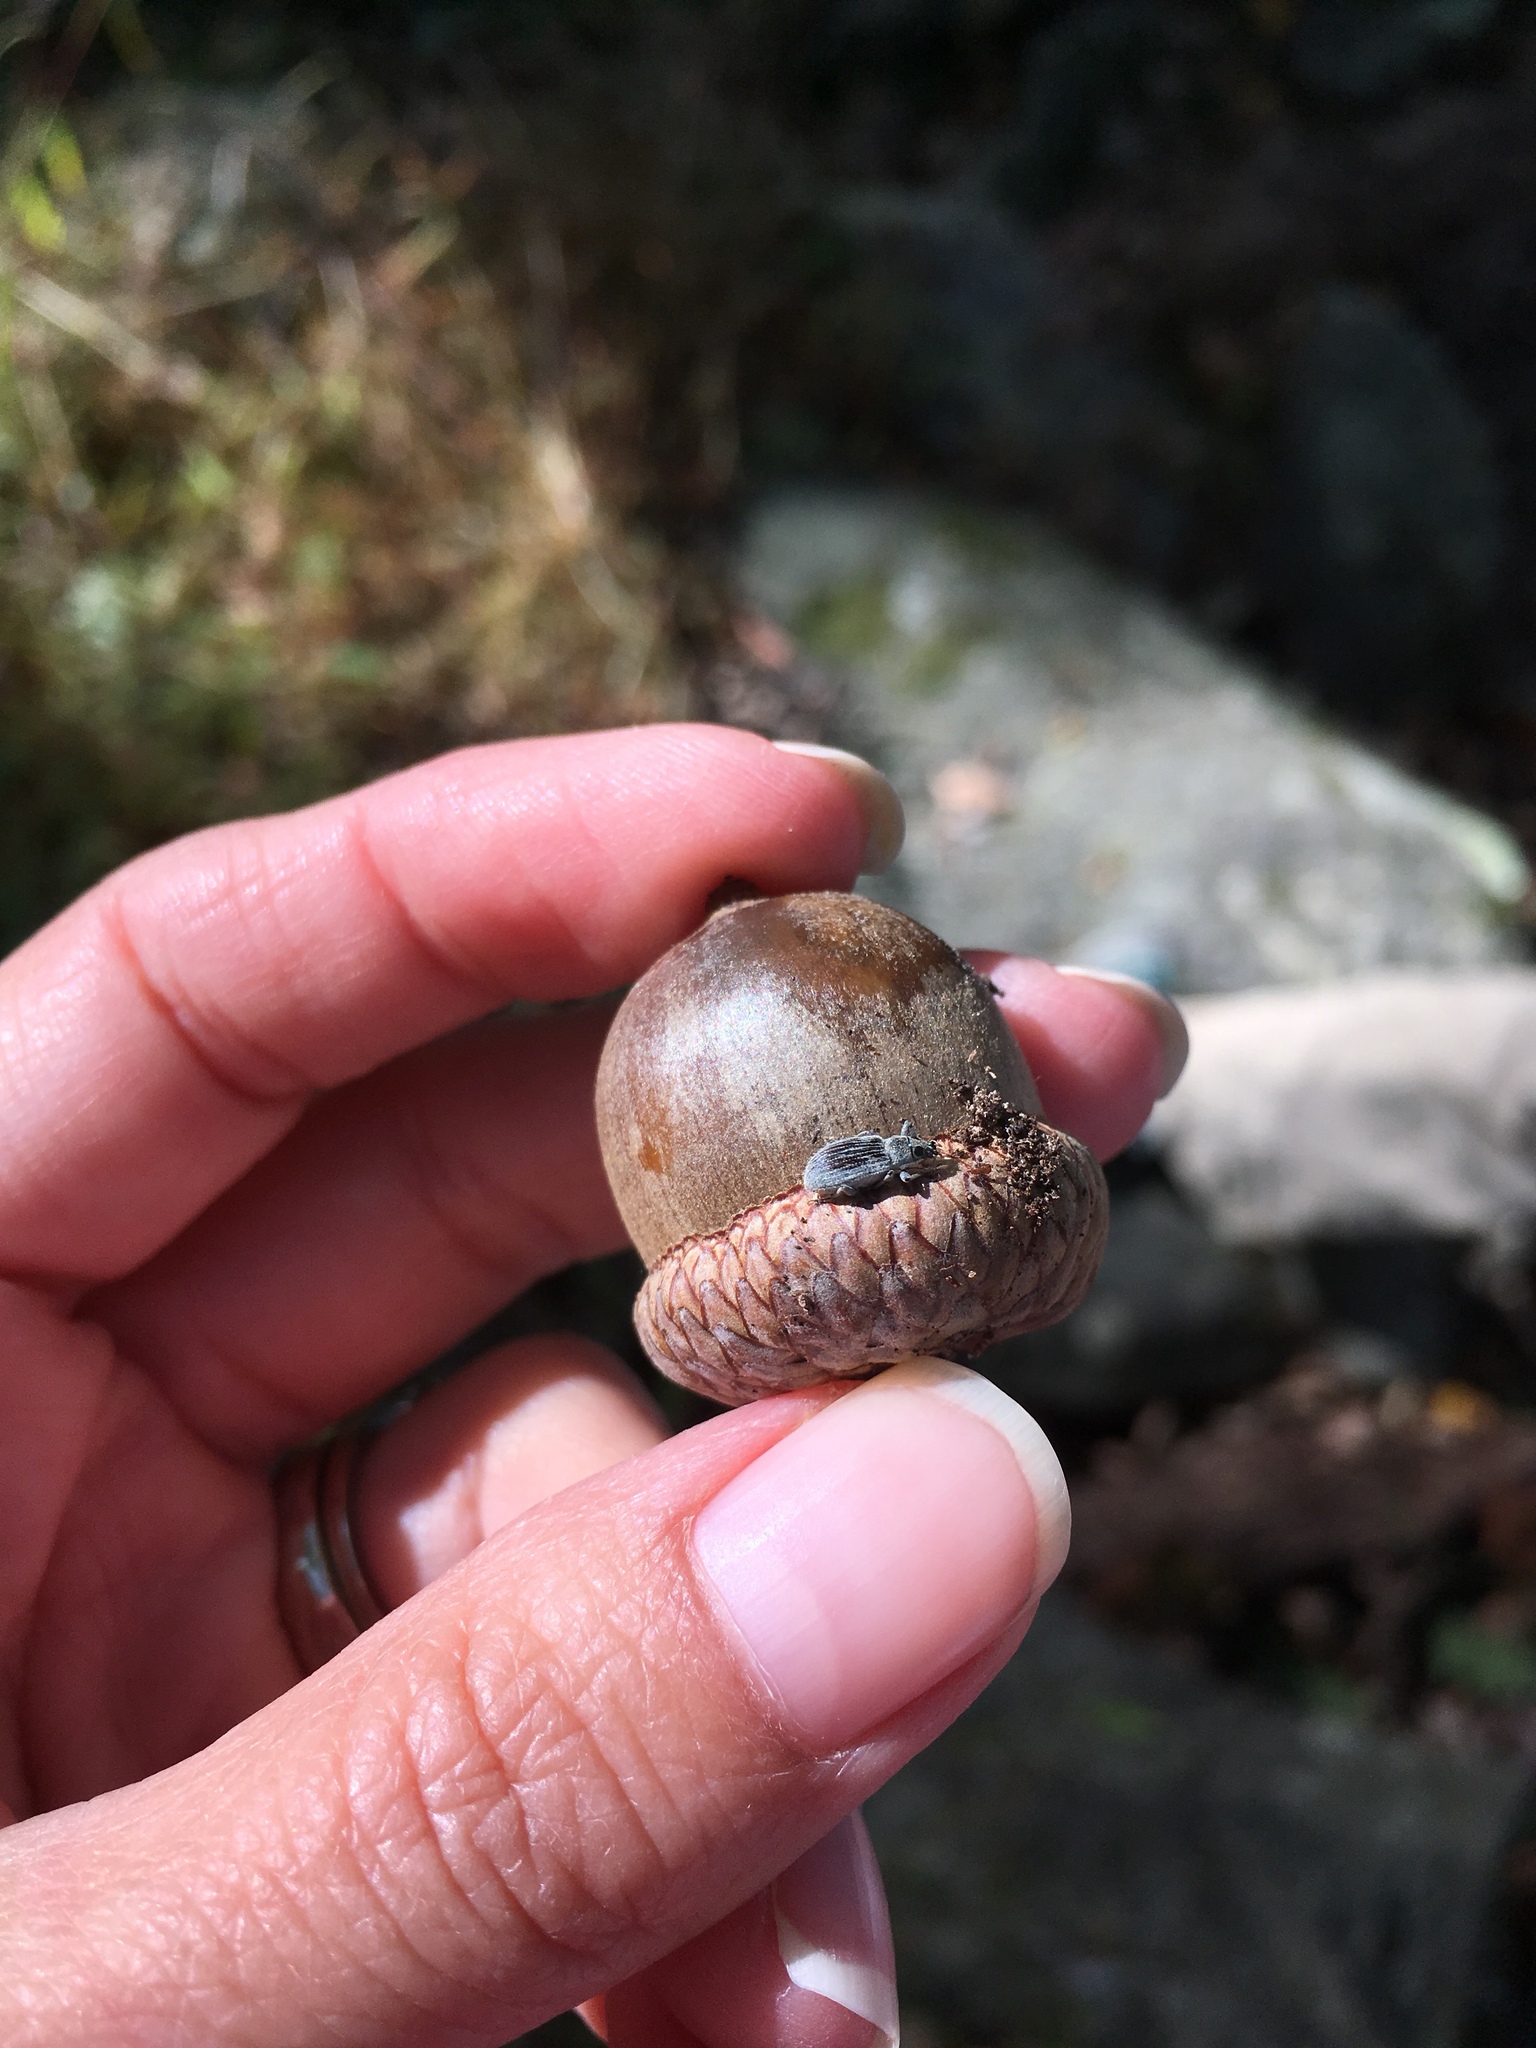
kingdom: Animalia
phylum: Arthropoda
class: Insecta
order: Coleoptera
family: Curculionidae
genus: Cyrtepistomus
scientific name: Cyrtepistomus castaneus
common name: Weevil
